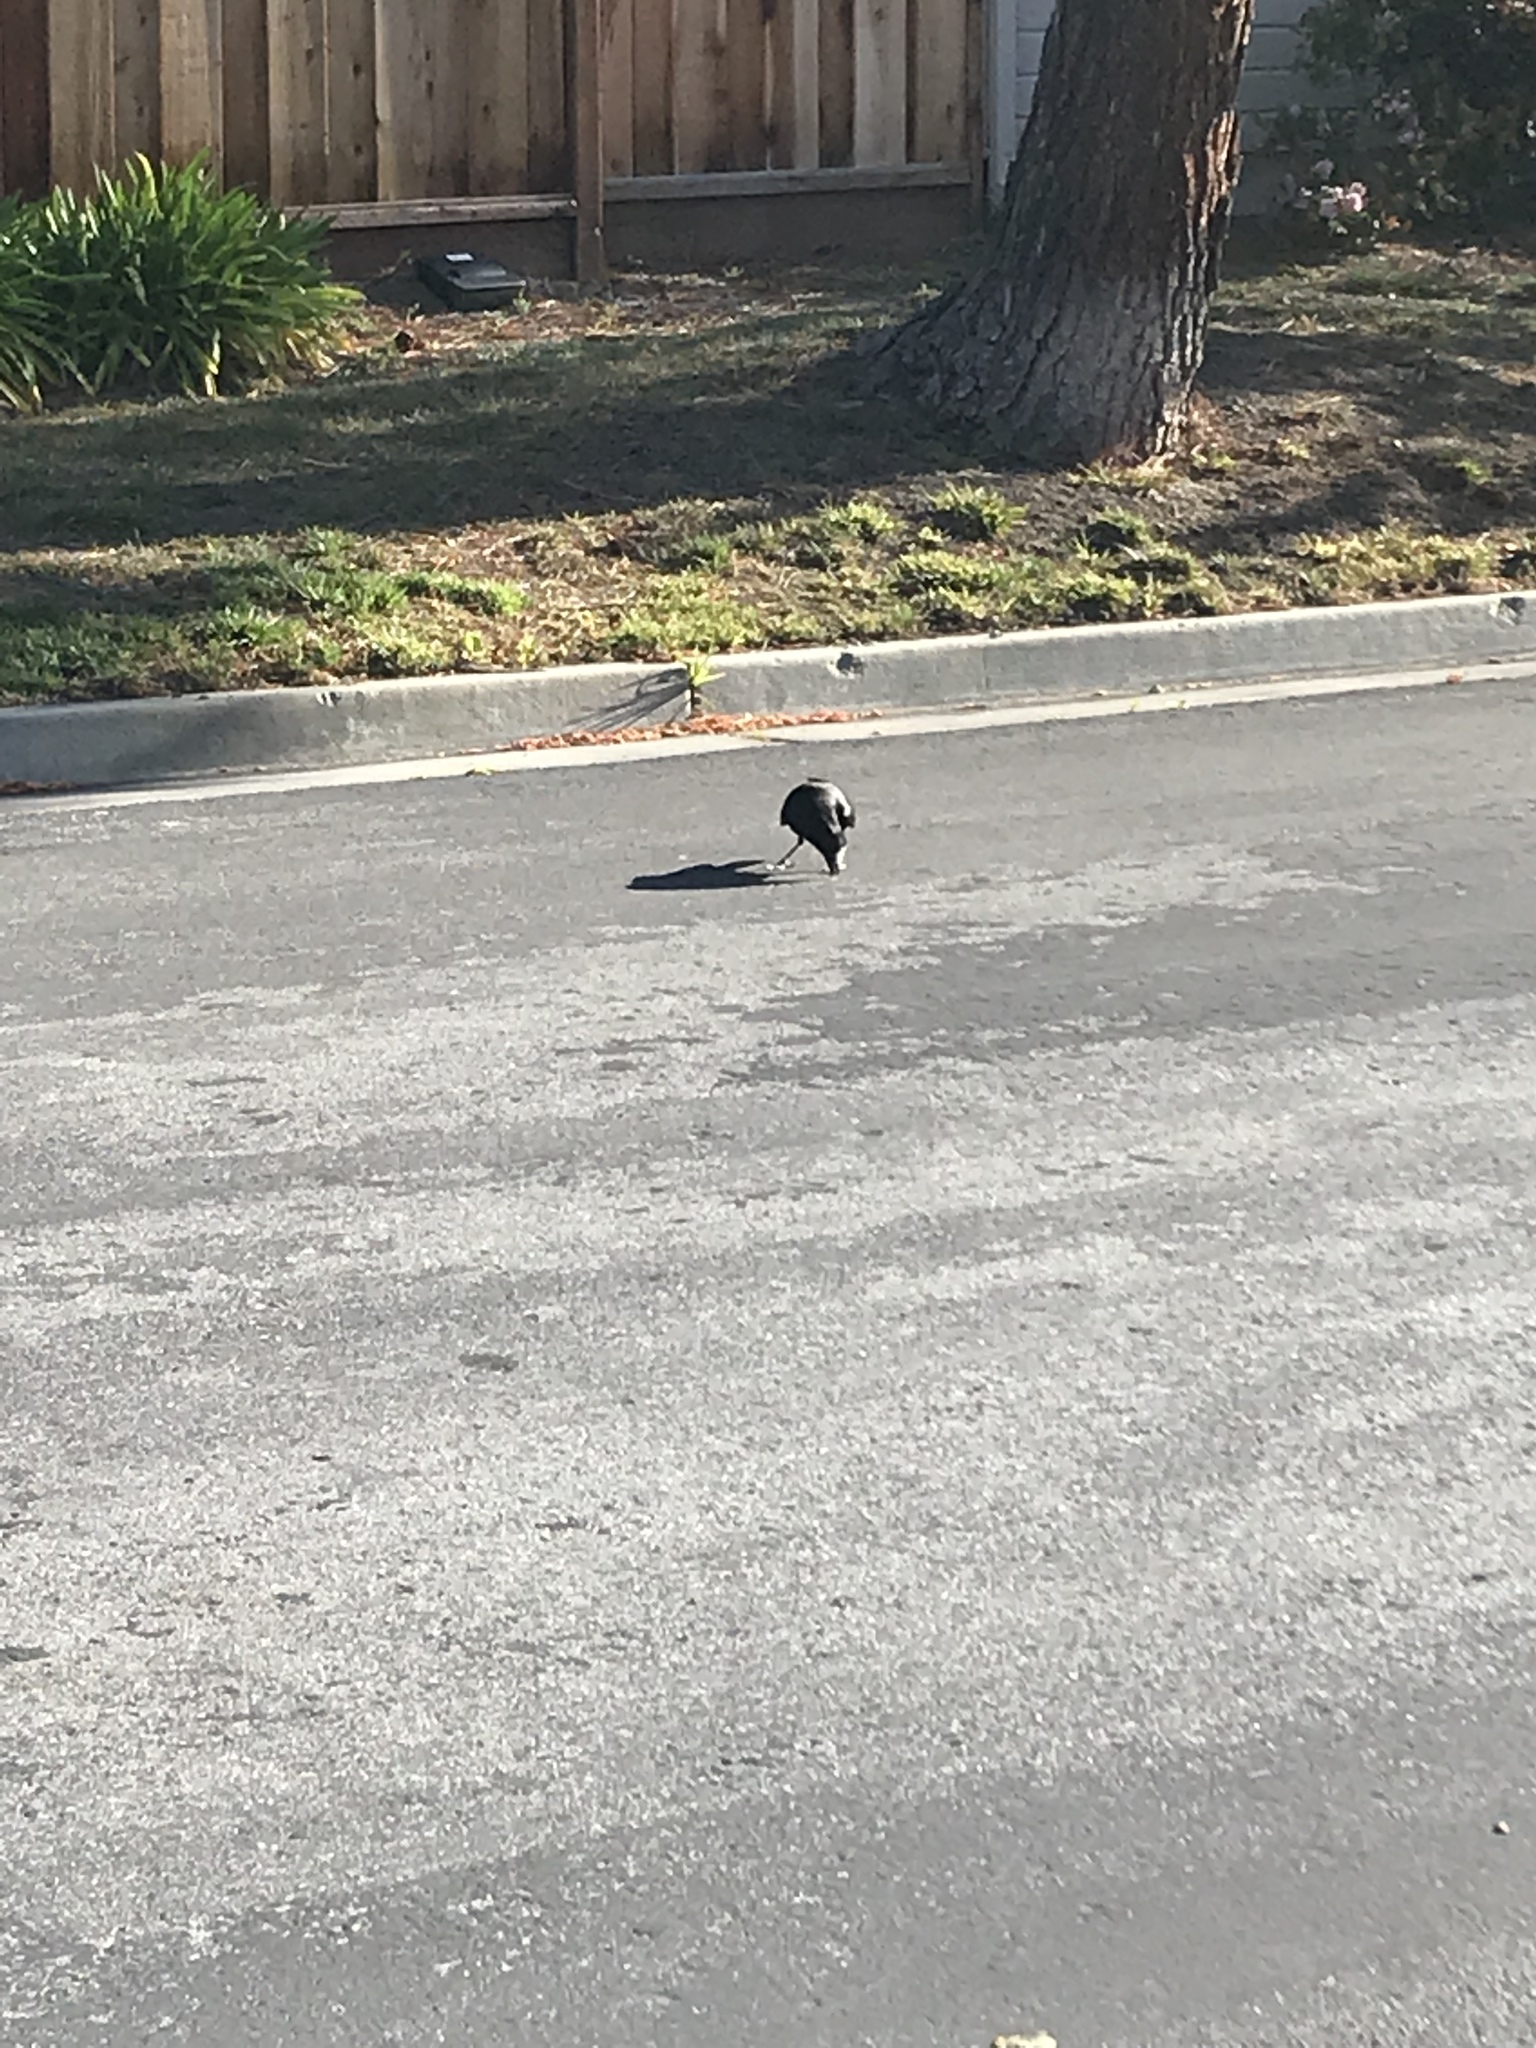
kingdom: Animalia
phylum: Chordata
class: Aves
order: Passeriformes
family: Corvidae
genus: Corvus
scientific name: Corvus brachyrhynchos
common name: American crow
